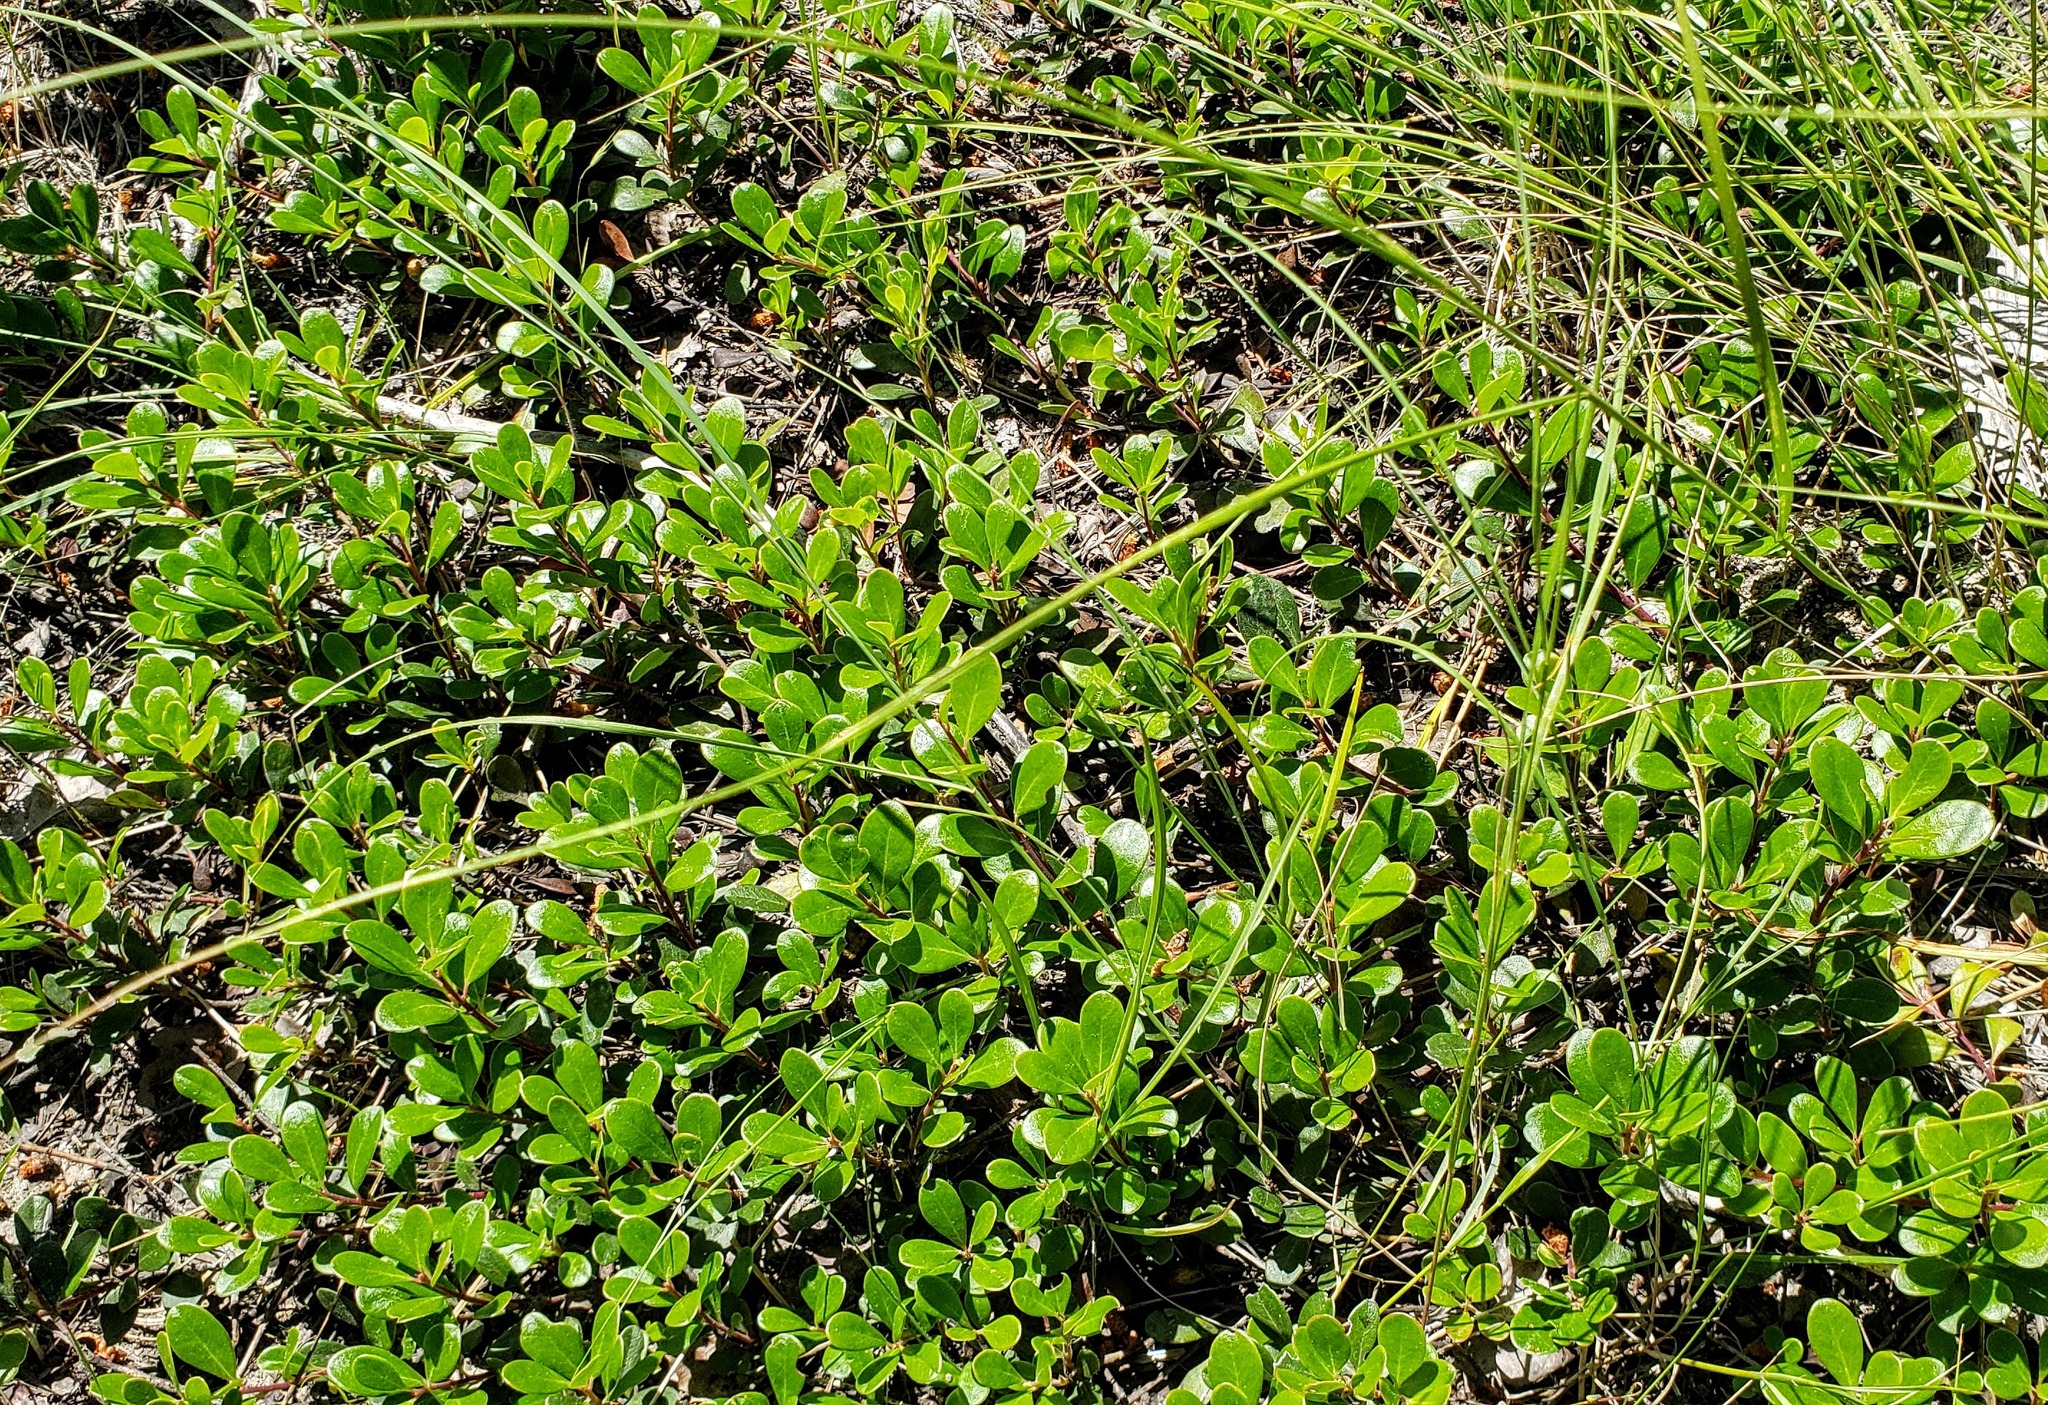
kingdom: Plantae
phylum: Tracheophyta
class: Magnoliopsida
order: Ericales
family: Ericaceae
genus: Arctostaphylos
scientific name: Arctostaphylos uva-ursi
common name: Bearberry
